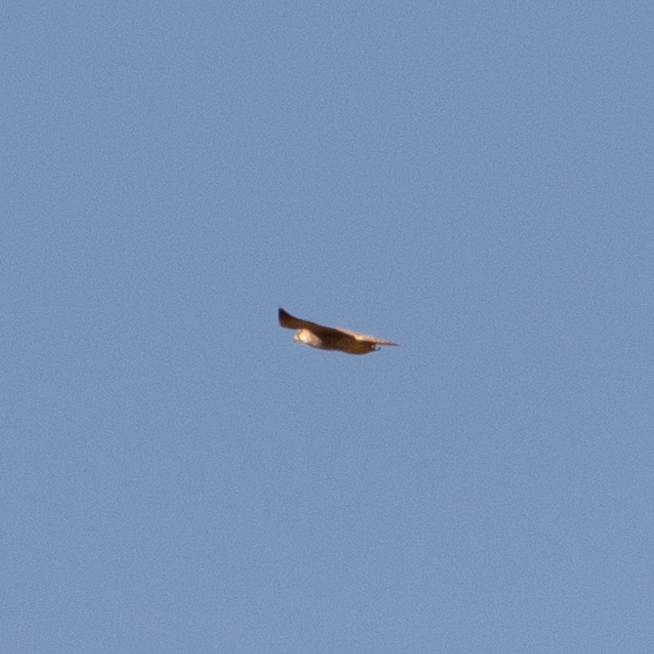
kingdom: Animalia
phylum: Chordata
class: Aves
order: Falconiformes
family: Falconidae
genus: Falco
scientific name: Falco peregrinus
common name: Peregrine falcon
